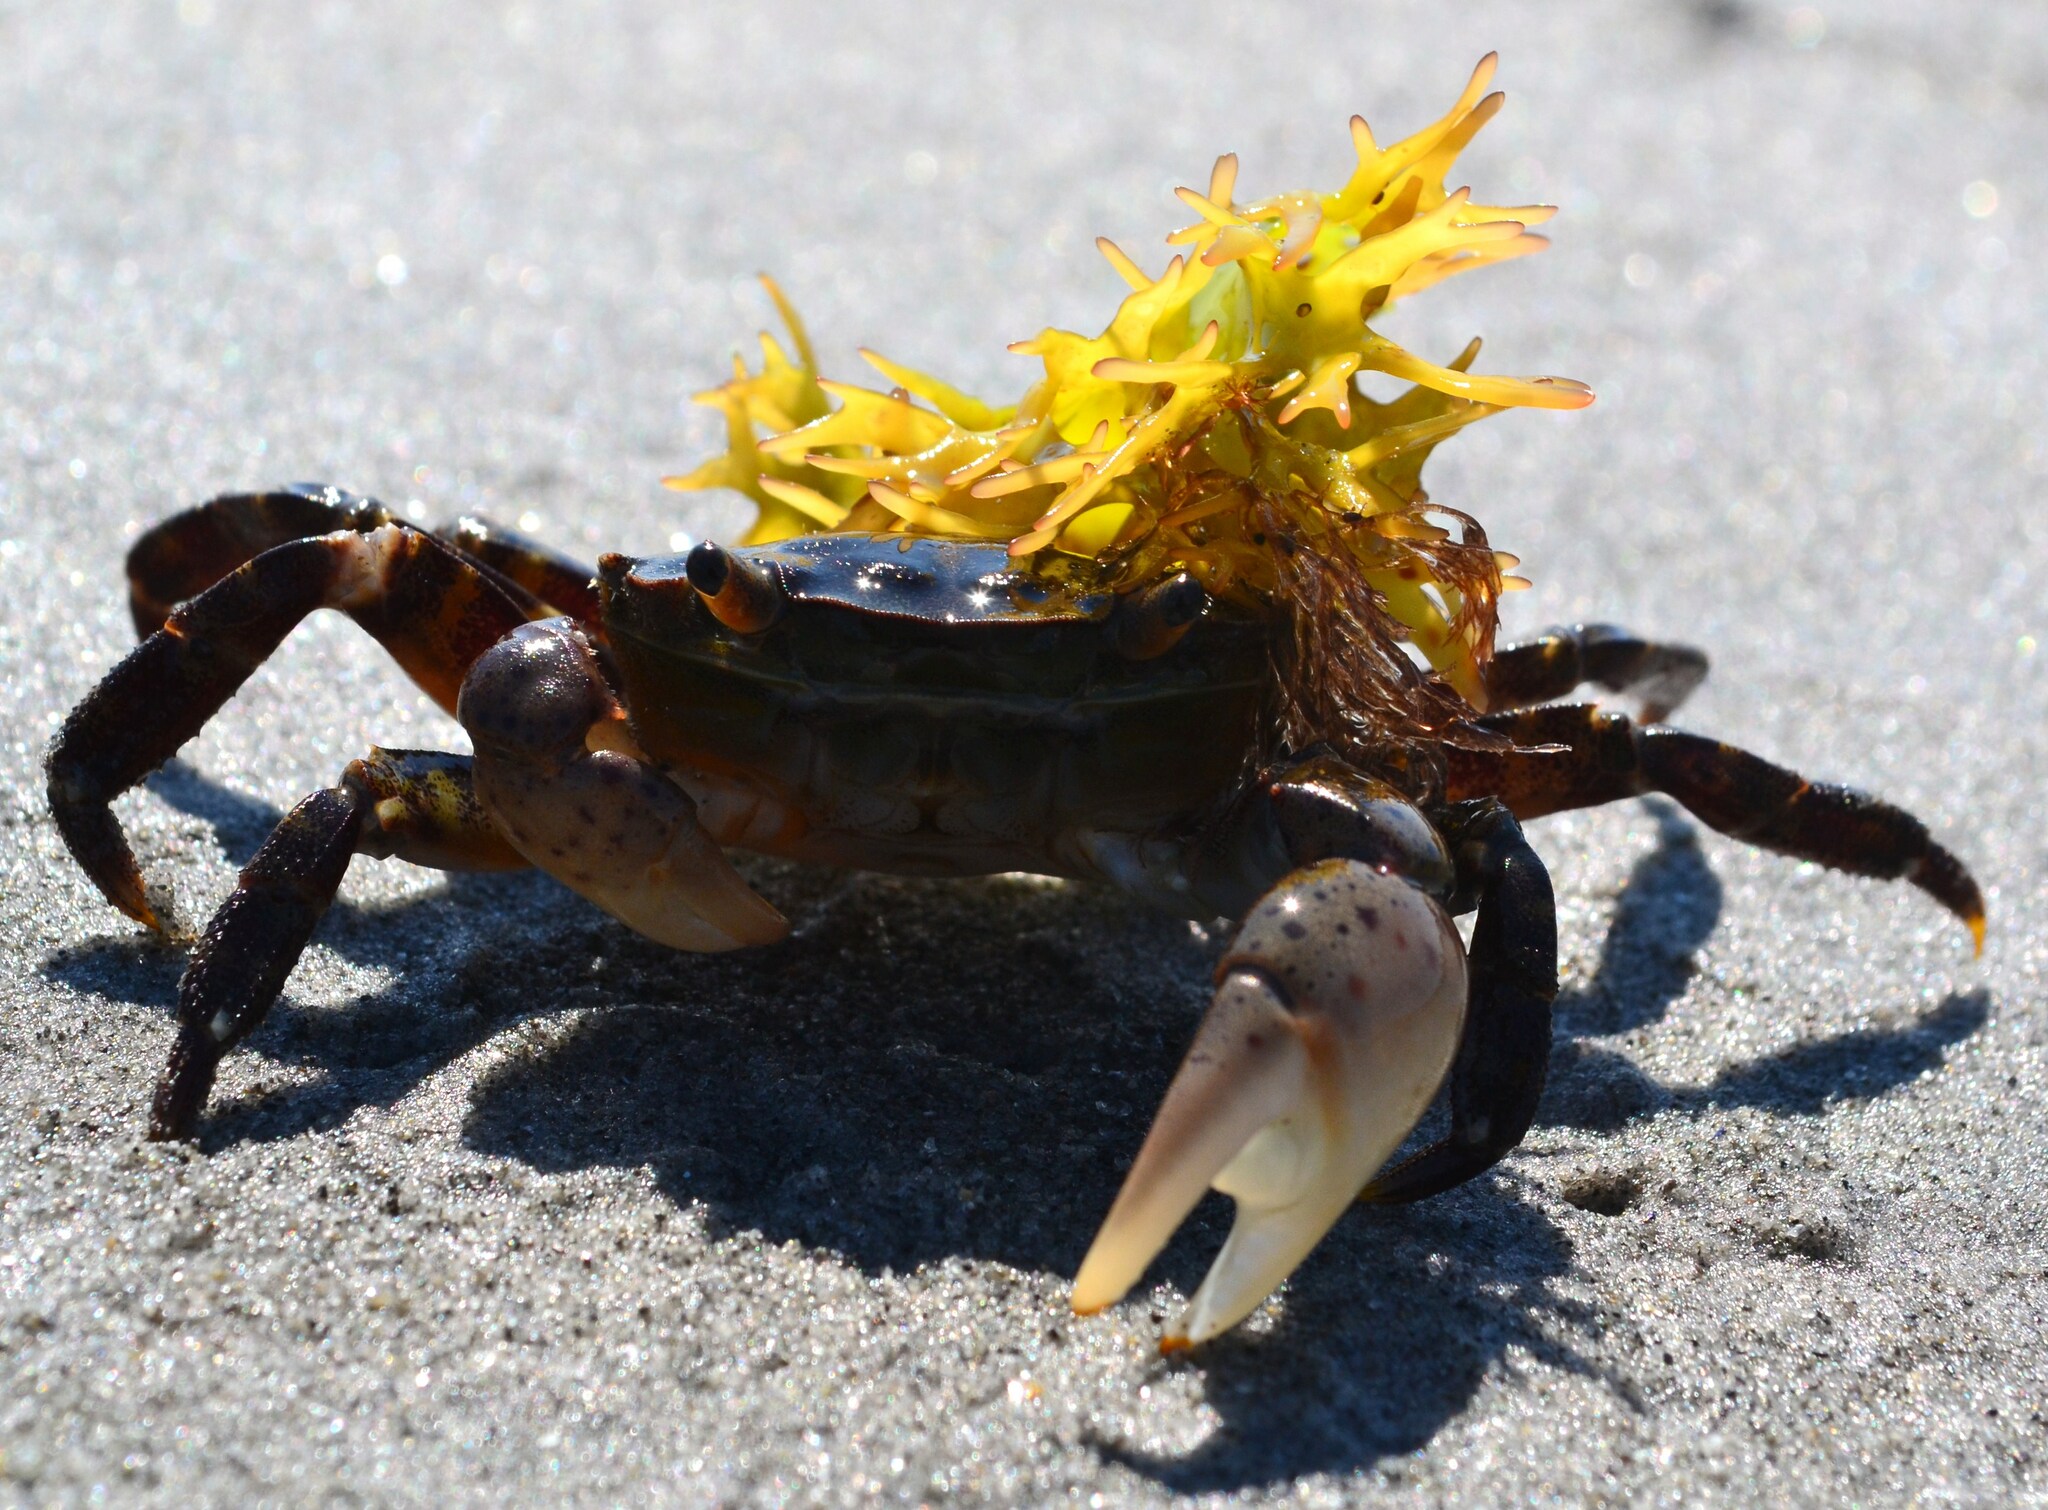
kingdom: Animalia
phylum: Arthropoda
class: Malacostraca
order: Decapoda
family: Varunidae
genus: Hemigrapsus
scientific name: Hemigrapsus sanguineus
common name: Asian shore crab
